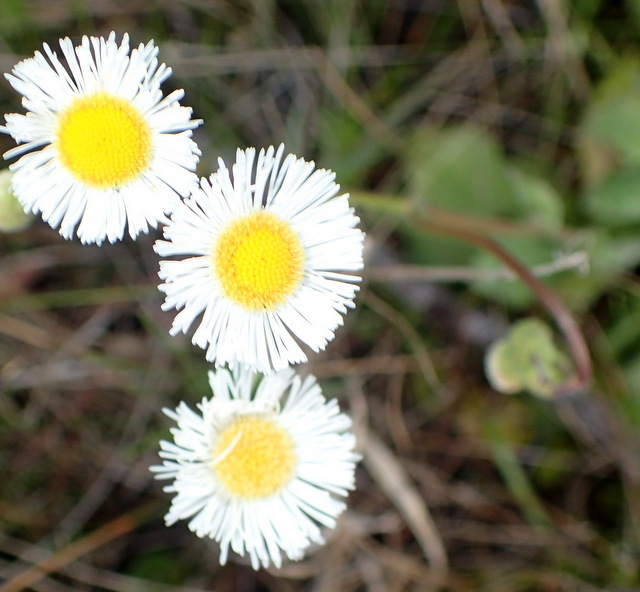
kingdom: Plantae
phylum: Tracheophyta
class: Magnoliopsida
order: Asterales
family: Asteraceae
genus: Erigeron
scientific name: Erigeron quercifolius
